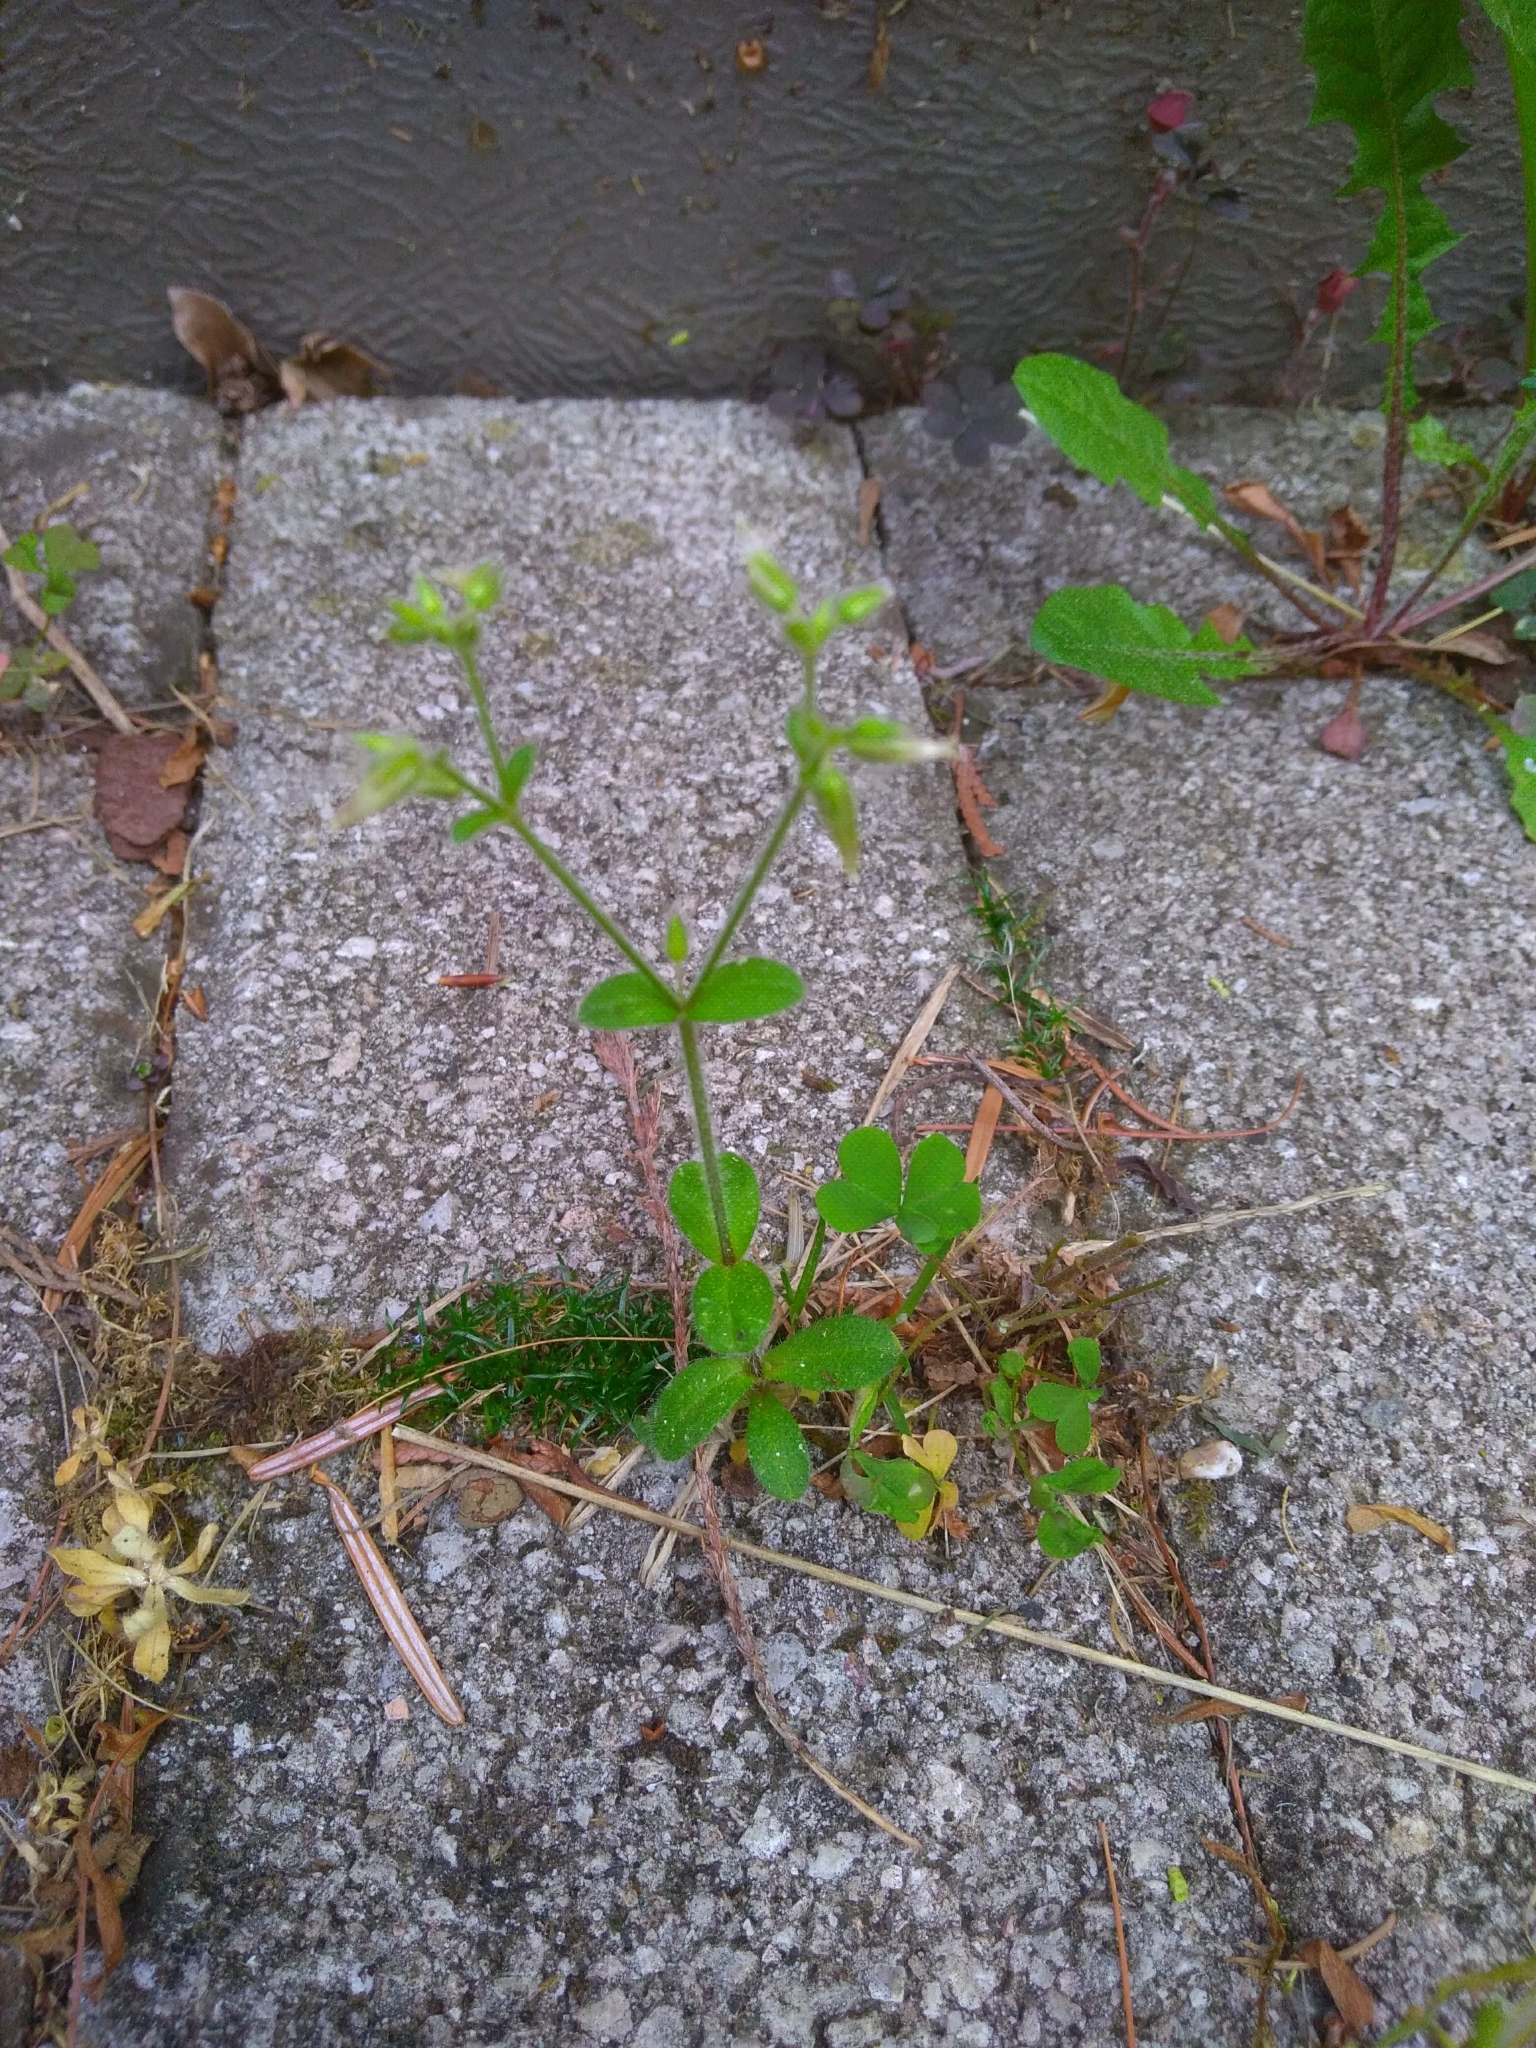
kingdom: Plantae
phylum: Tracheophyta
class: Magnoliopsida
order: Caryophyllales
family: Caryophyllaceae
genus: Cerastium
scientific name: Cerastium glomeratum
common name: Sticky chickweed
